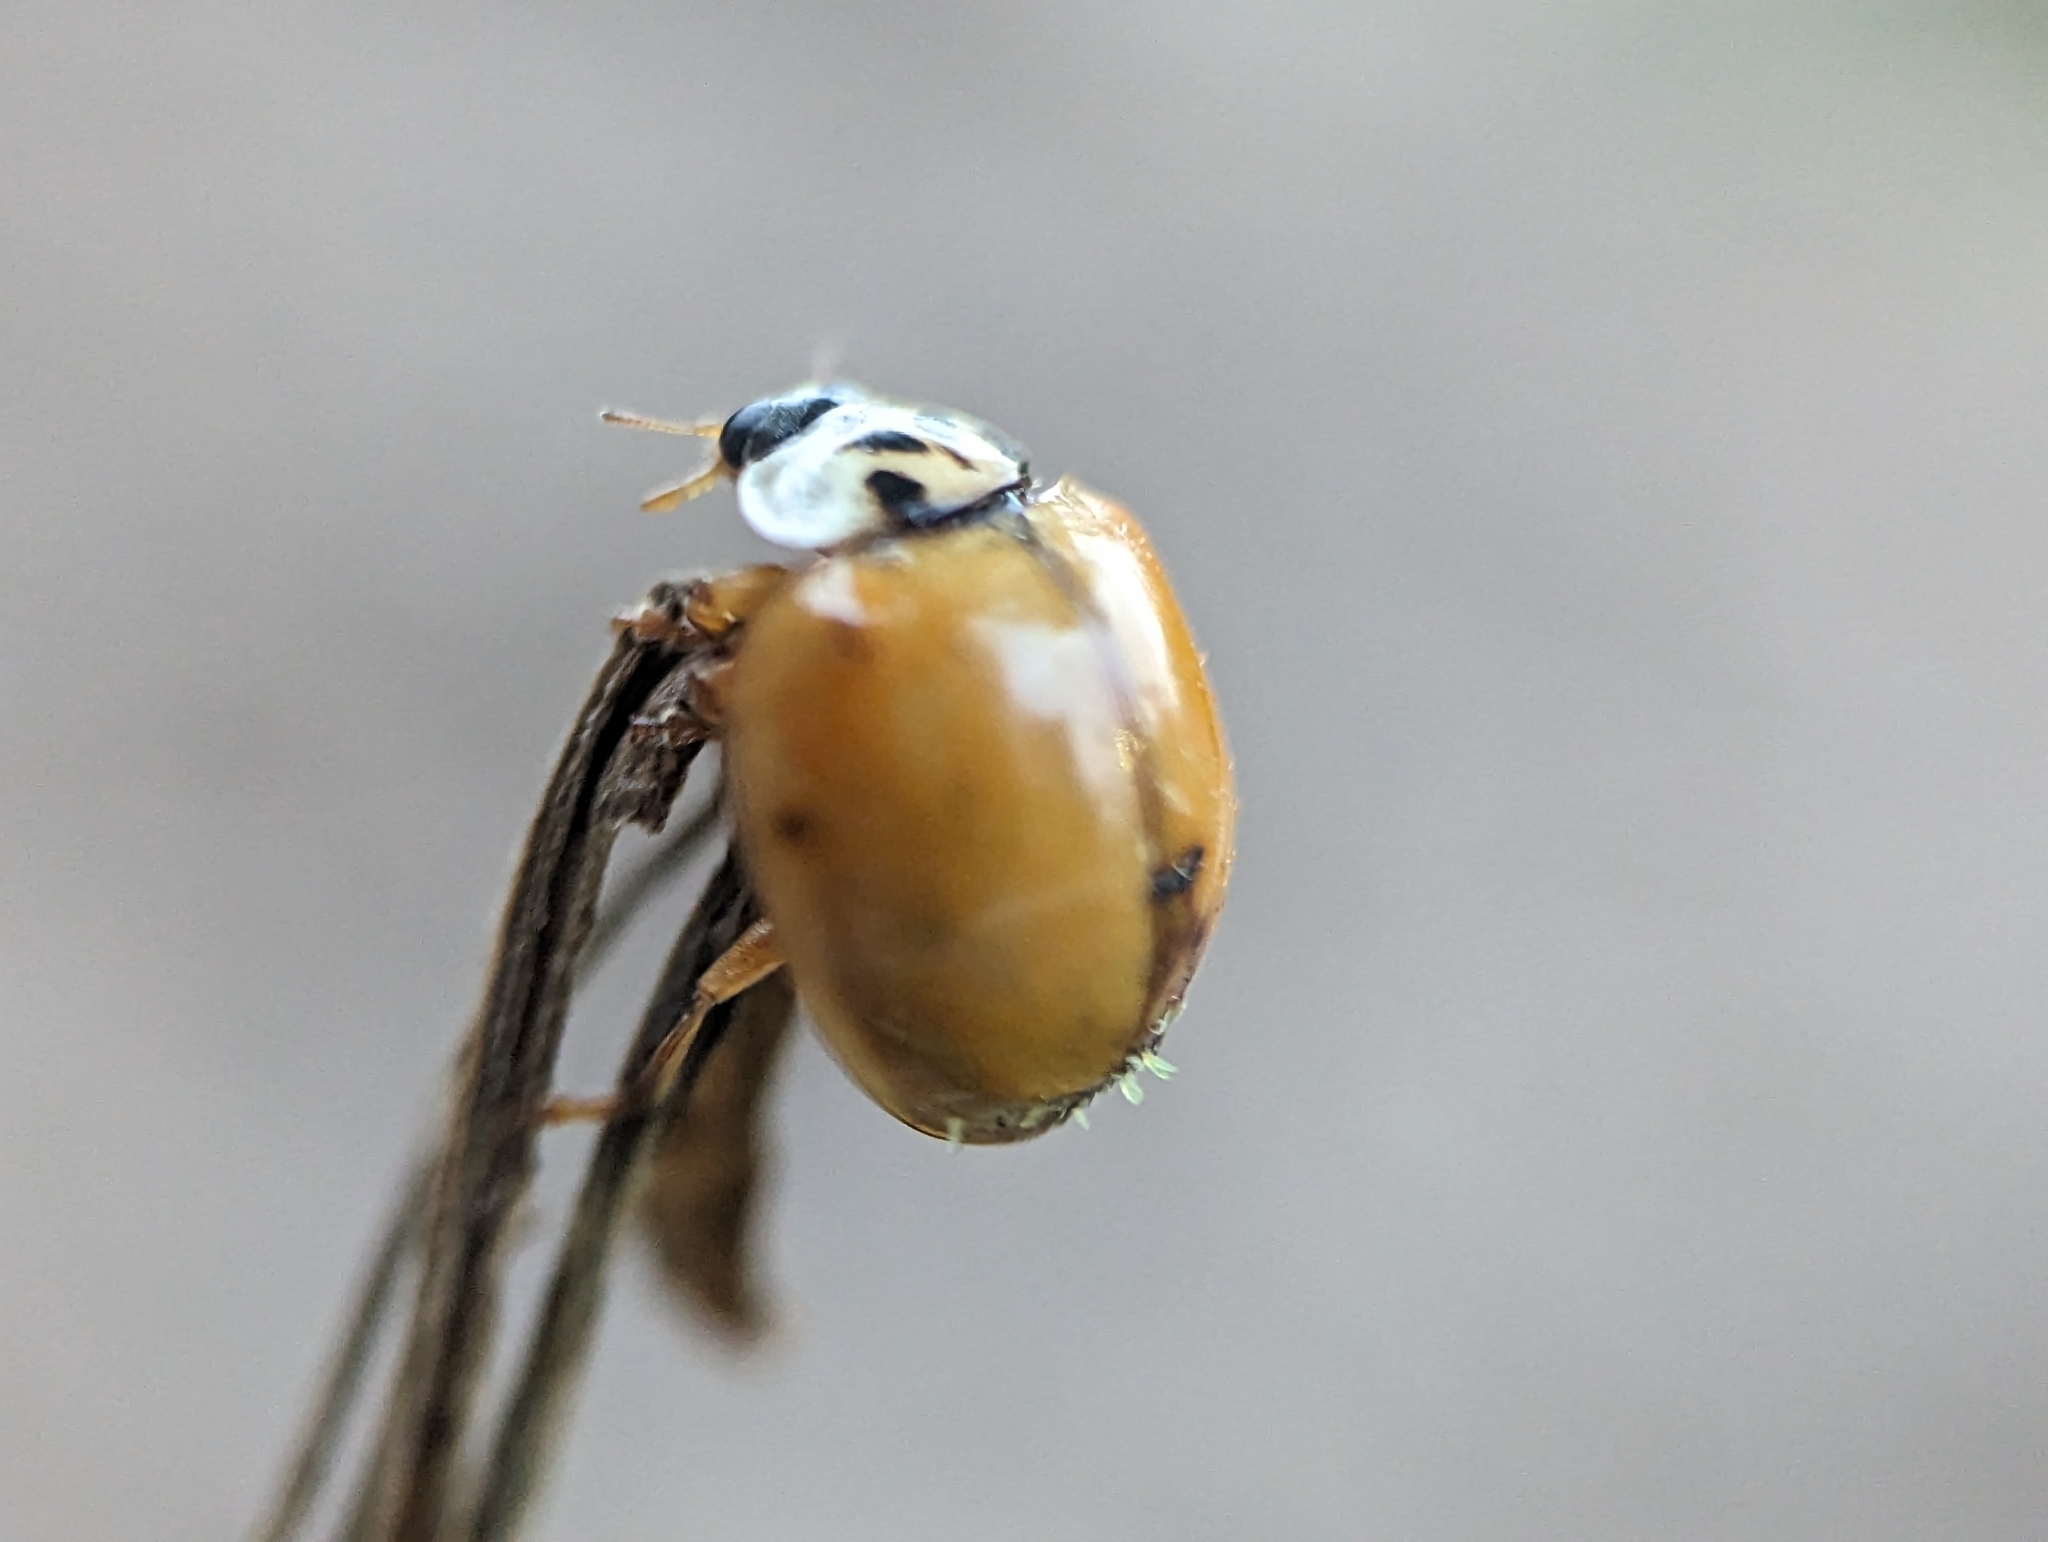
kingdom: Fungi
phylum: Ascomycota
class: Laboulbeniomycetes
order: Laboulbeniales
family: Laboulbeniaceae
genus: Hesperomyces
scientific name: Hesperomyces harmoniae
